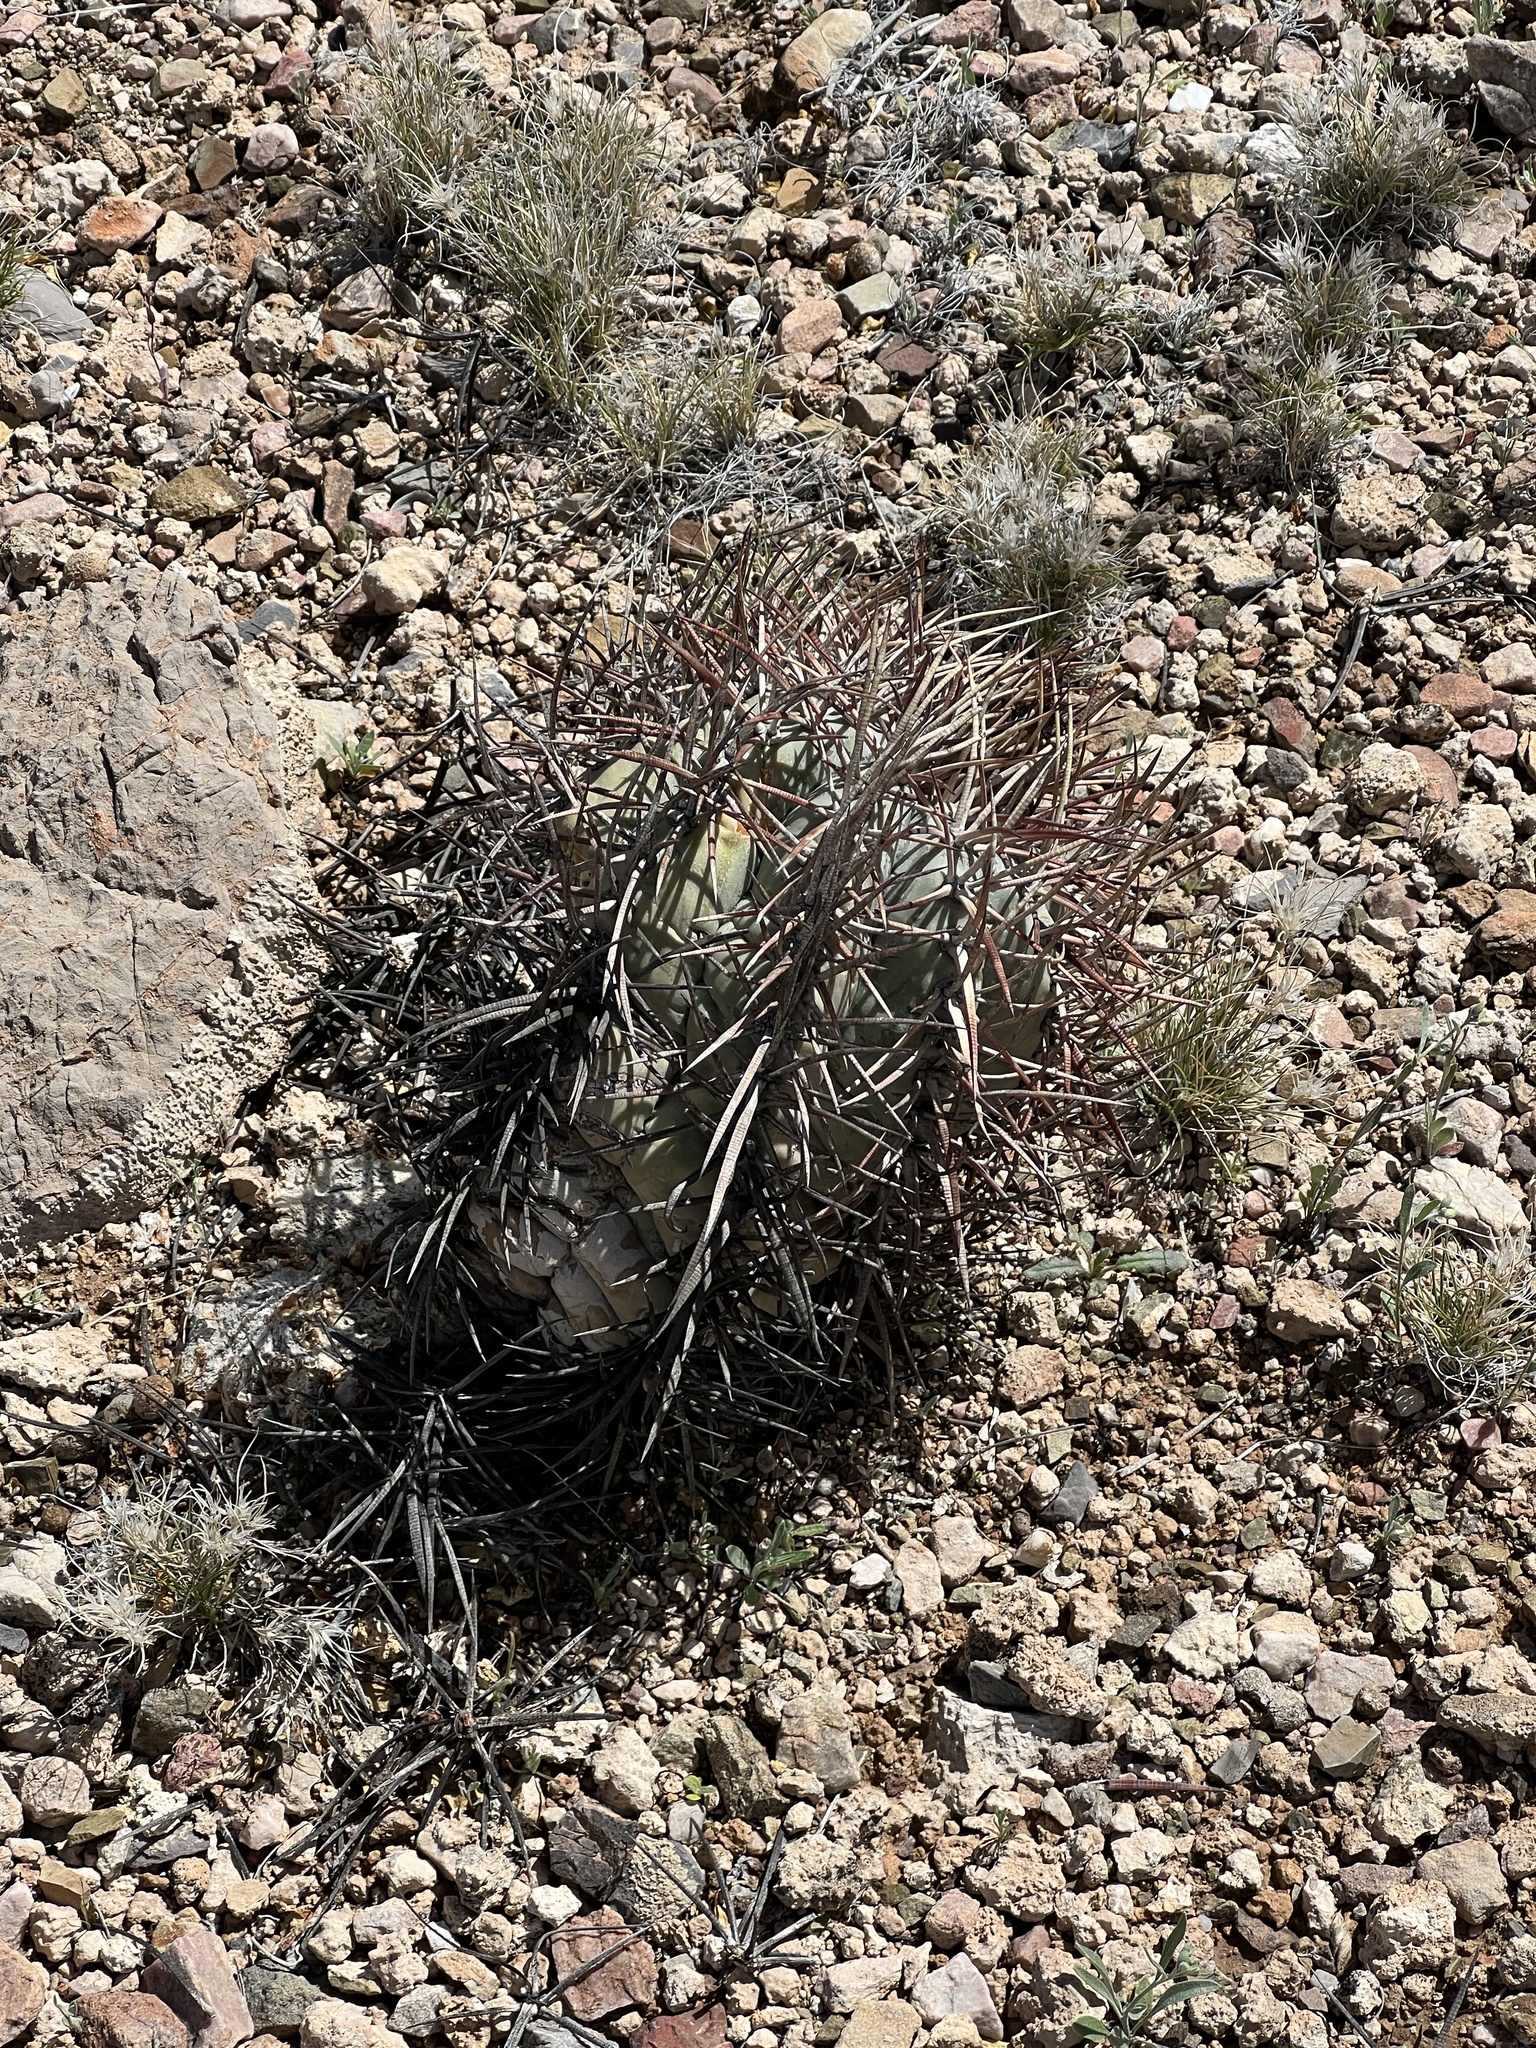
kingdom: Plantae
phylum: Tracheophyta
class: Magnoliopsida
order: Caryophyllales
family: Cactaceae
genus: Echinocactus
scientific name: Echinocactus horizonthalonius
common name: Devilshead
